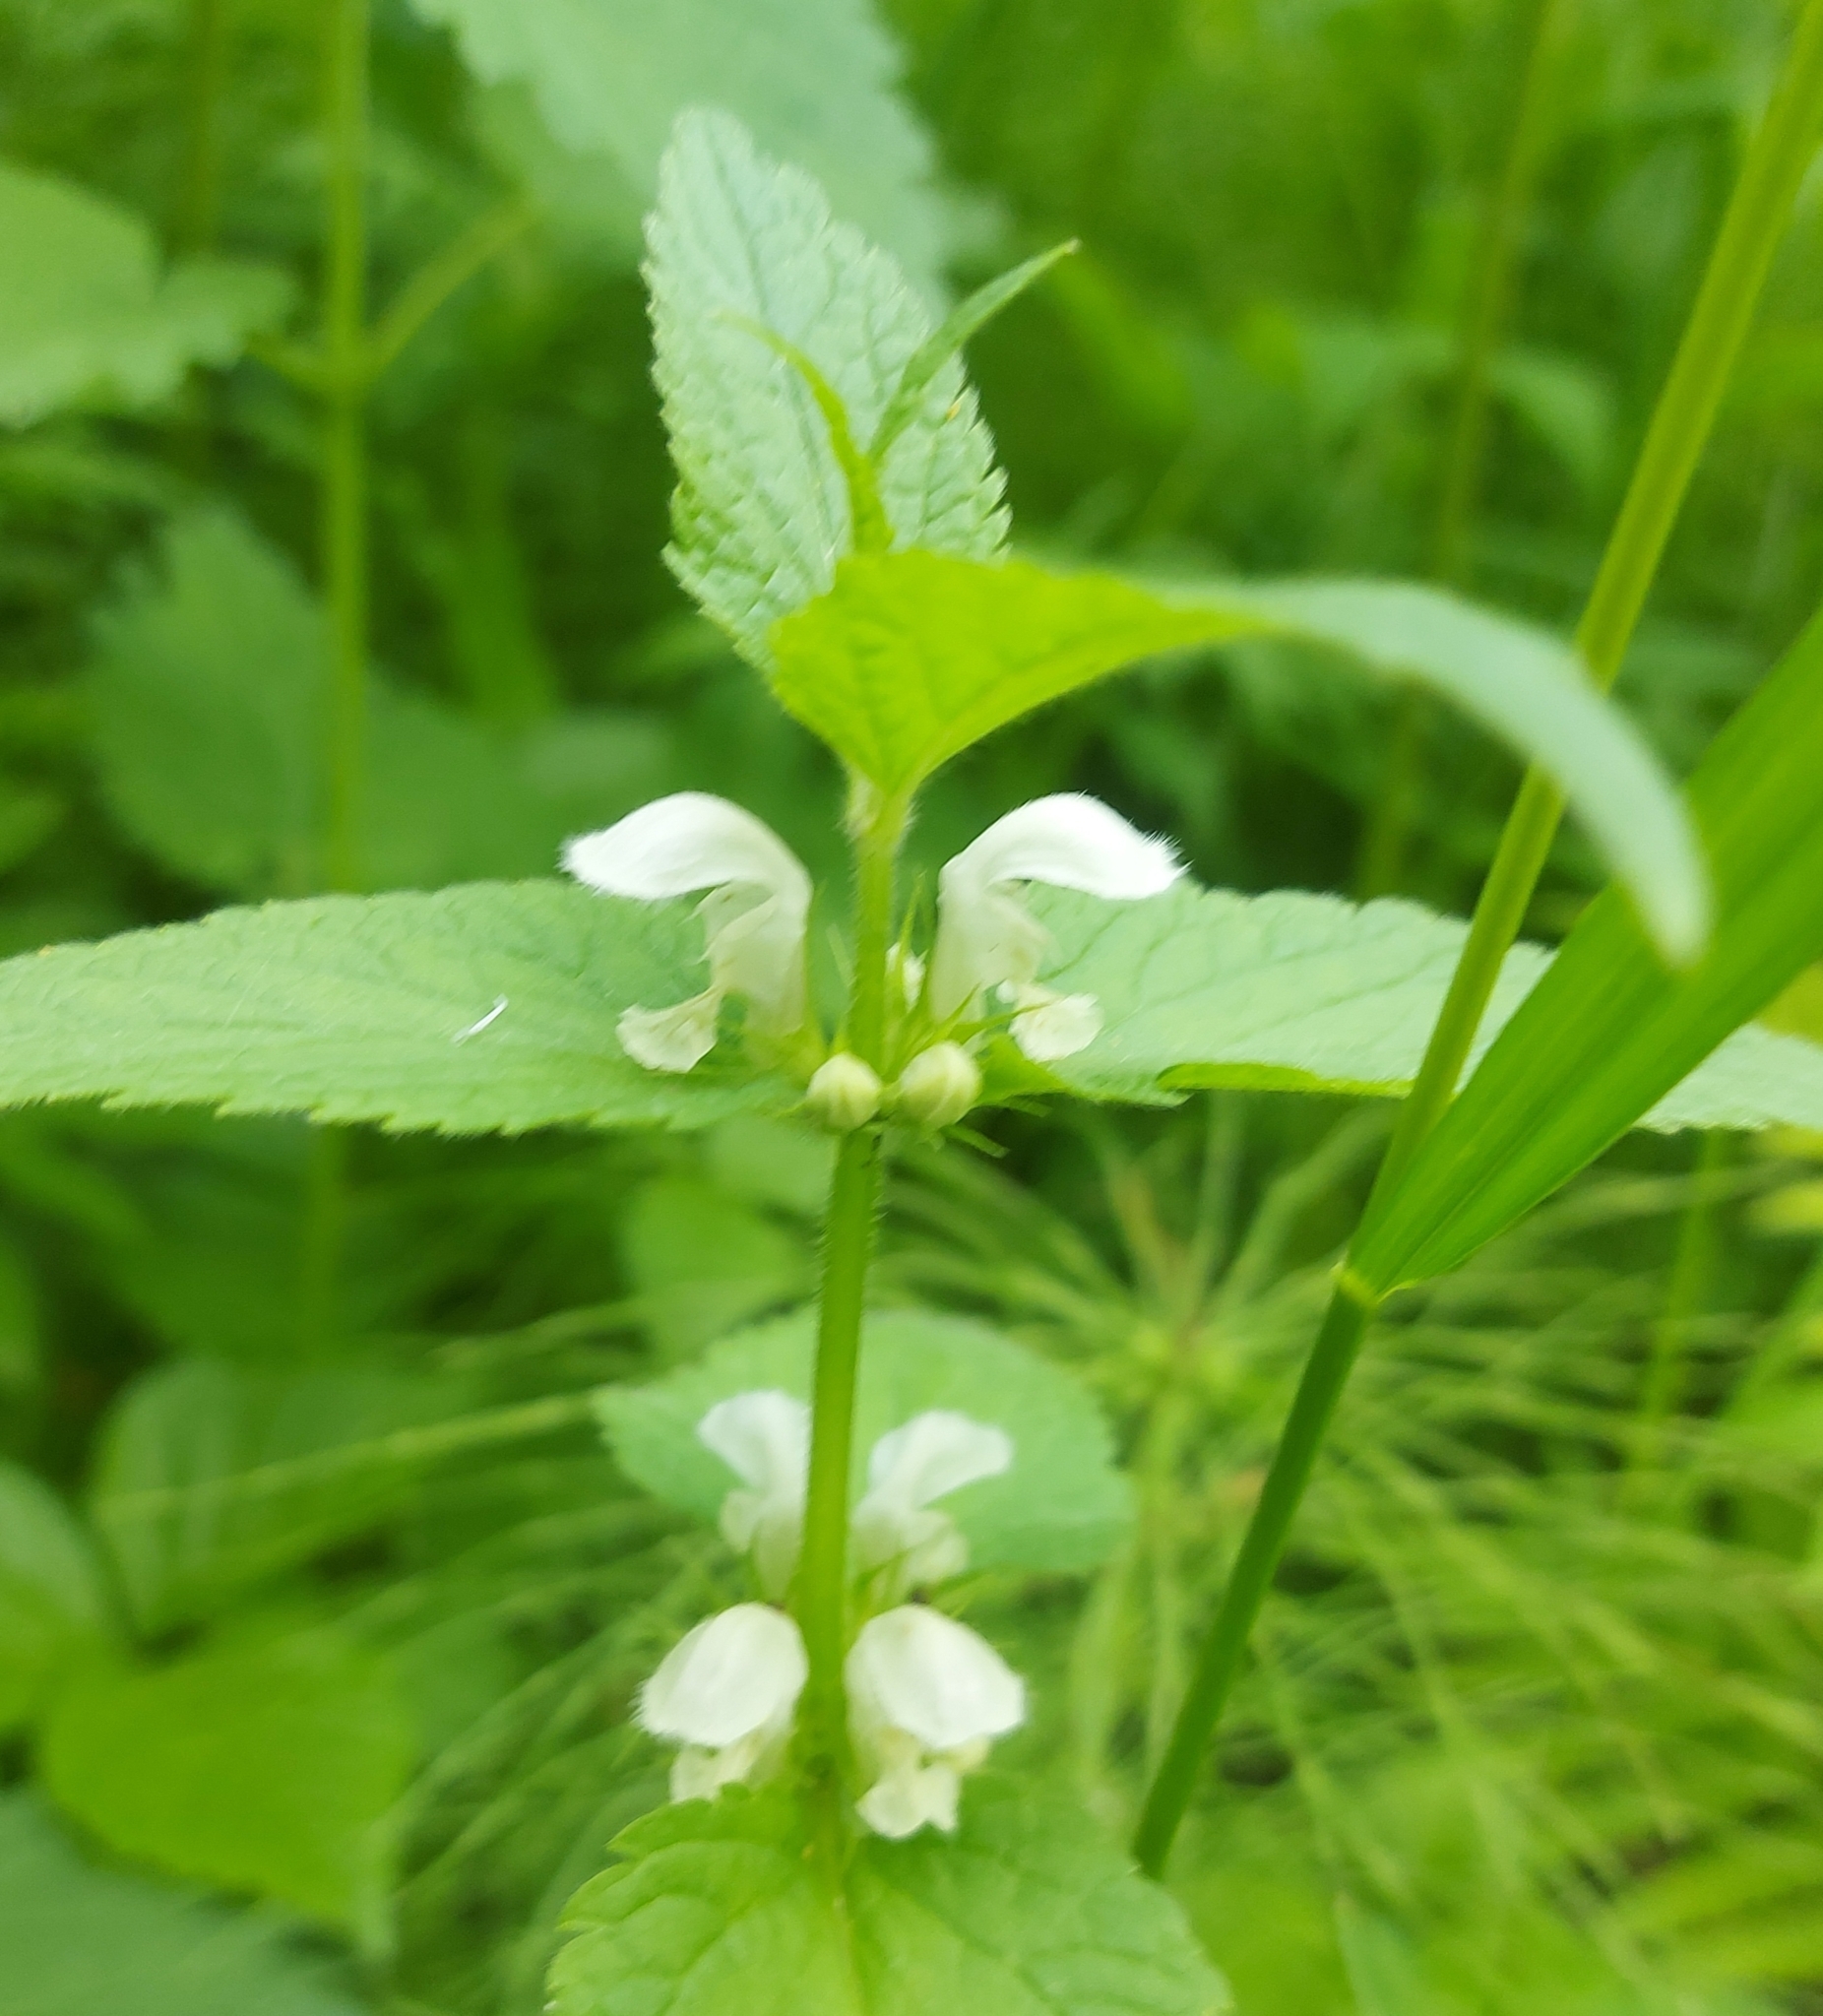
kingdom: Plantae
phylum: Tracheophyta
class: Magnoliopsida
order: Lamiales
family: Lamiaceae
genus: Lamium
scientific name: Lamium album
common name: White dead-nettle
